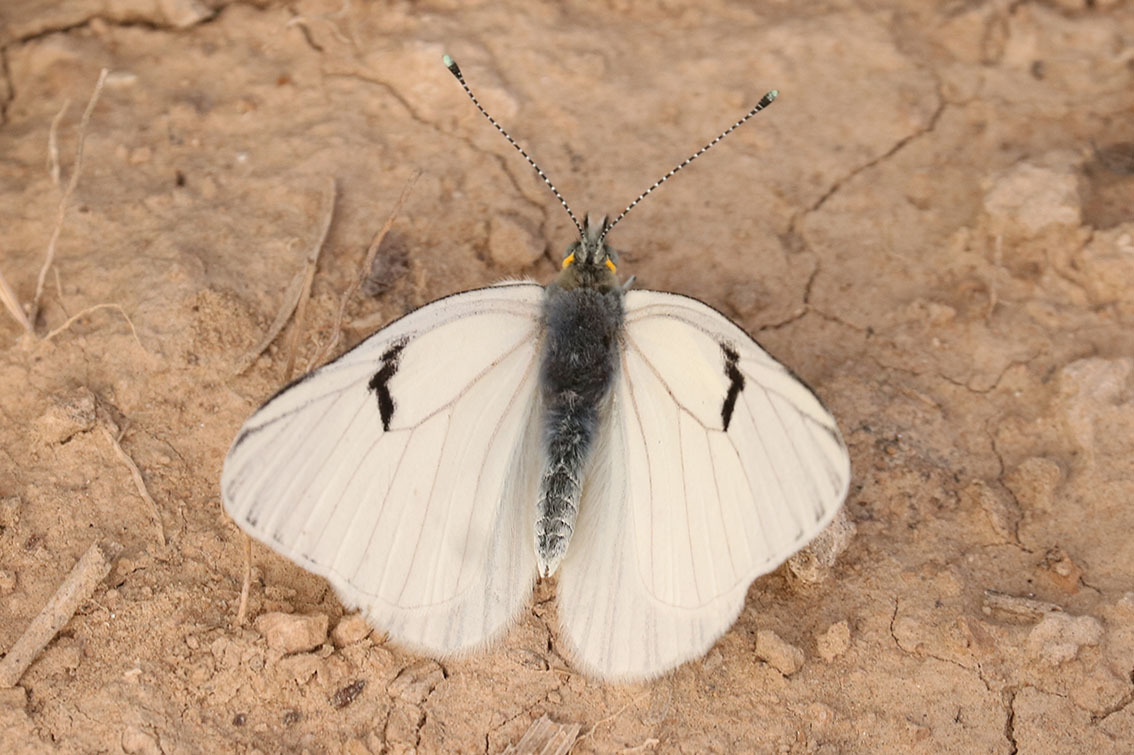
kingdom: Animalia
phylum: Arthropoda
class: Insecta
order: Lepidoptera
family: Pieridae
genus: Tatochila
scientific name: Tatochila mercedis
